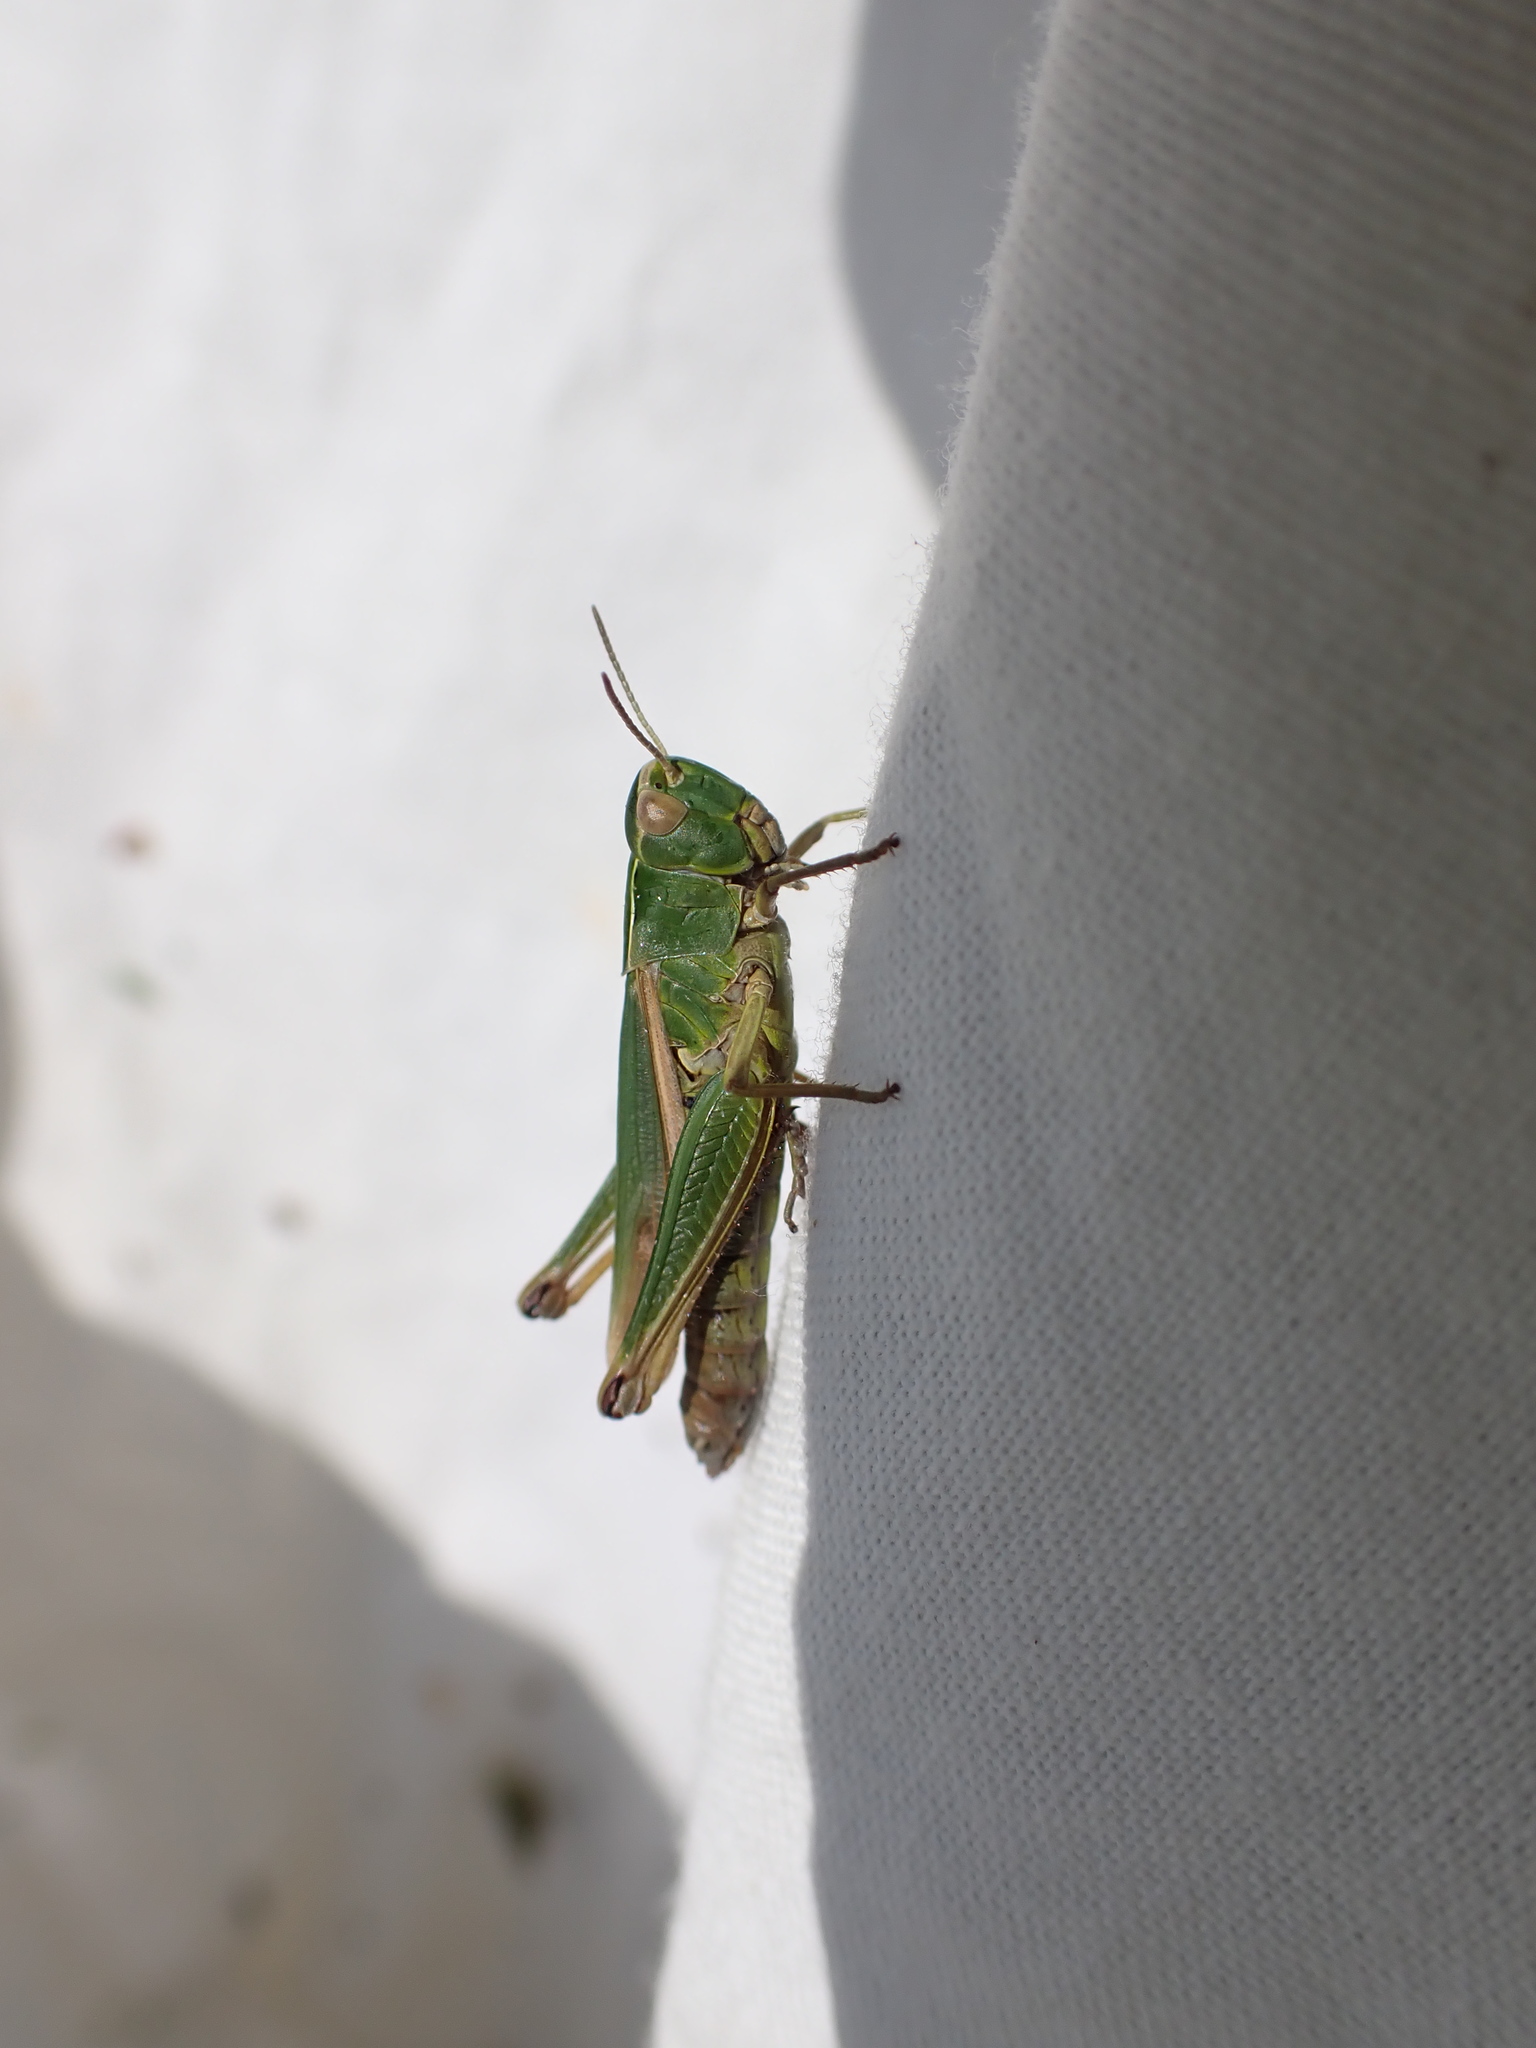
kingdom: Animalia
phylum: Arthropoda
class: Insecta
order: Orthoptera
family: Acrididae
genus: Omocestus
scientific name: Omocestus viridulus
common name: Common green grasshopper
